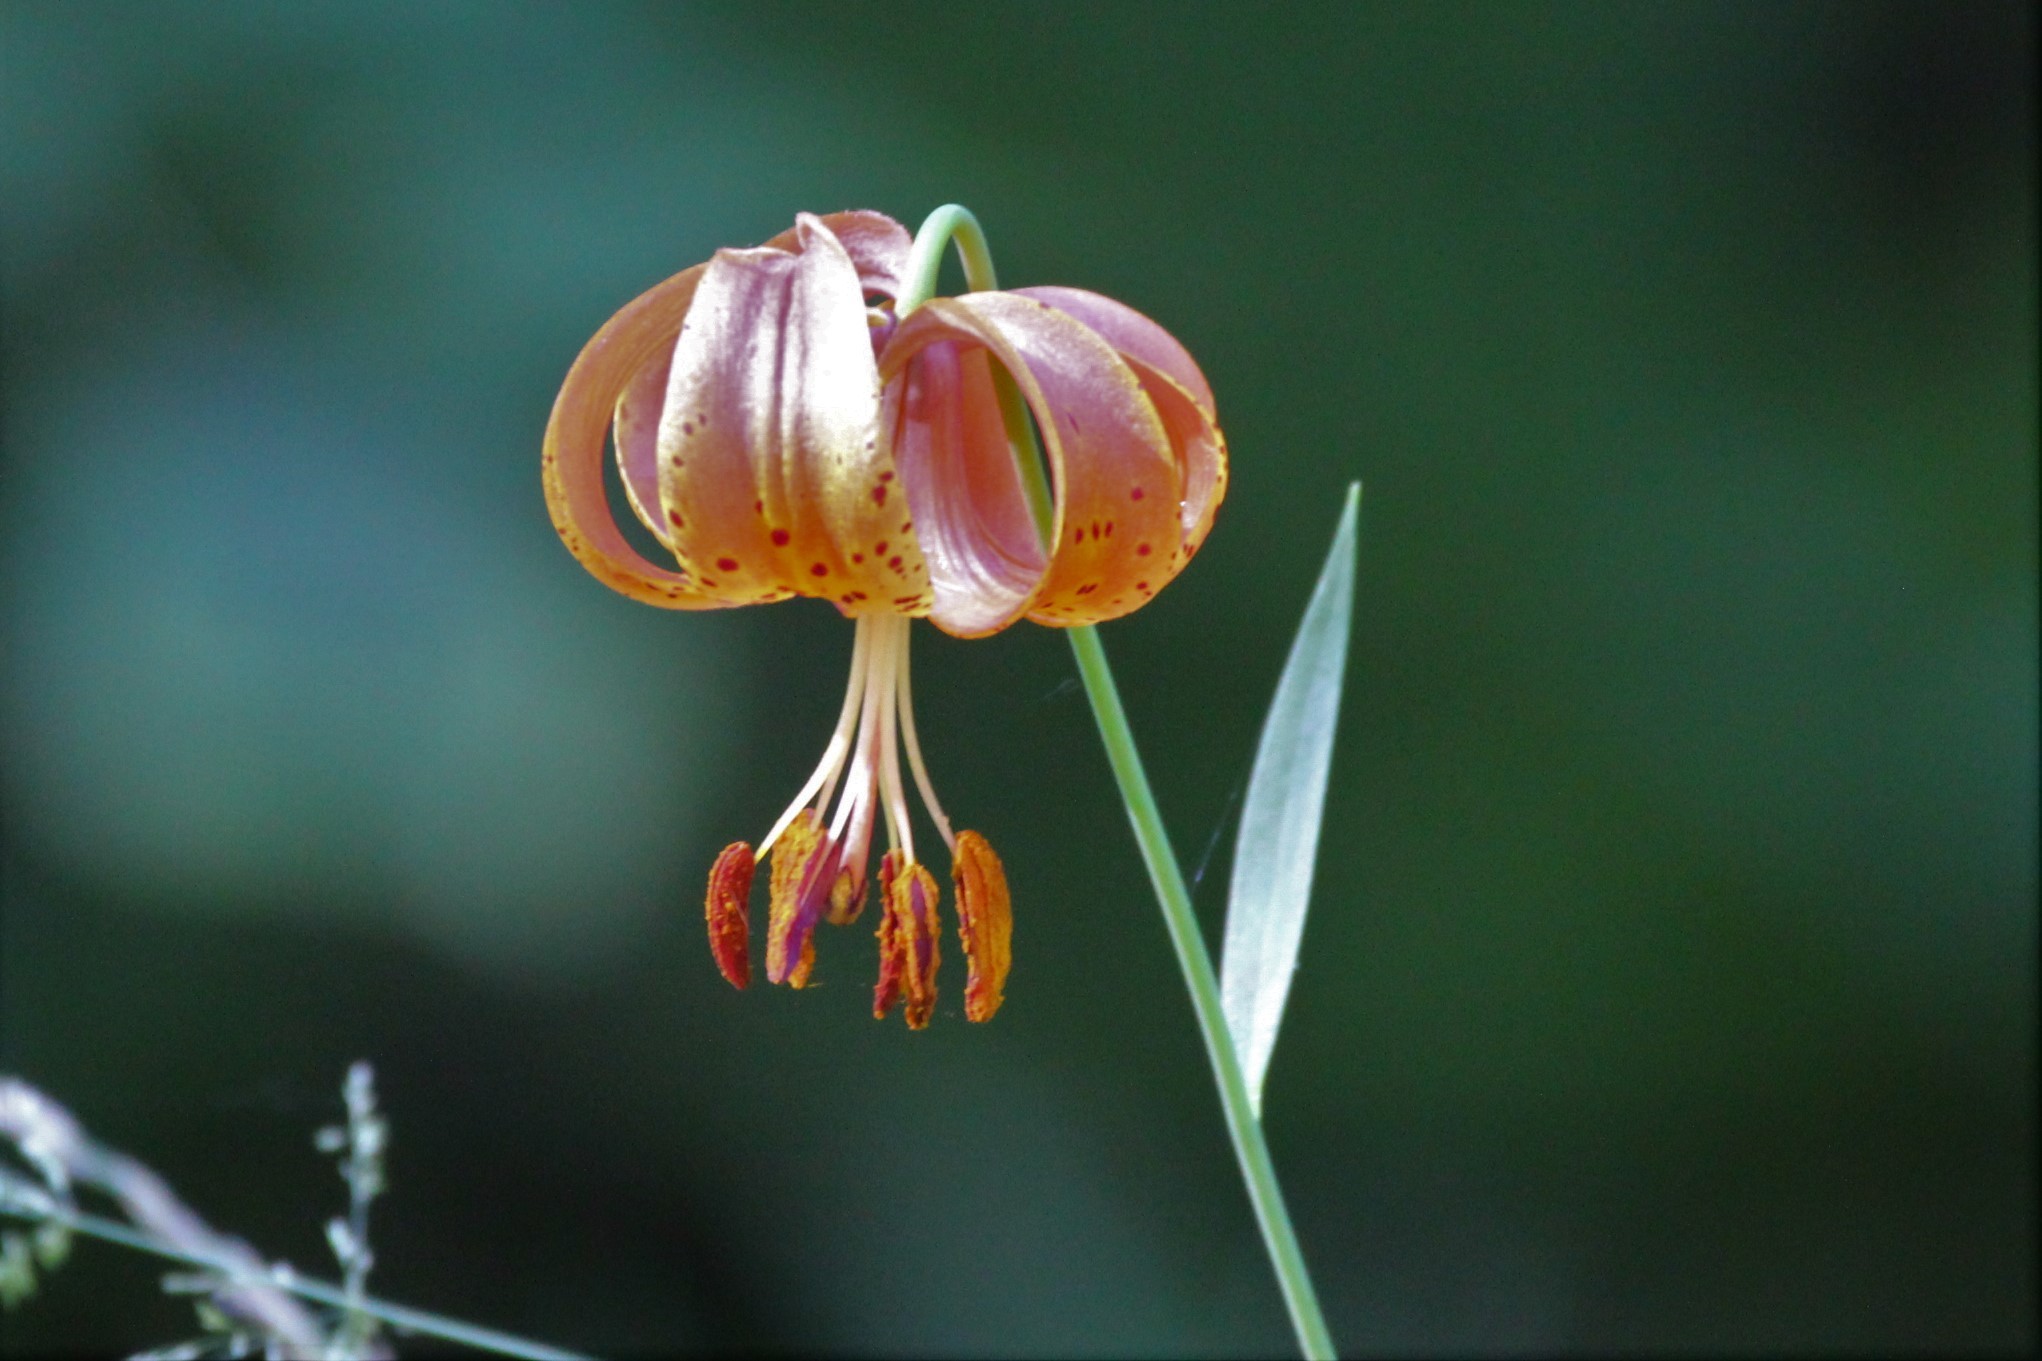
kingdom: Plantae
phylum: Tracheophyta
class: Liliopsida
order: Liliales
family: Liliaceae
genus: Lilium
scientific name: Lilium michiganense
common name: Michigan lily
